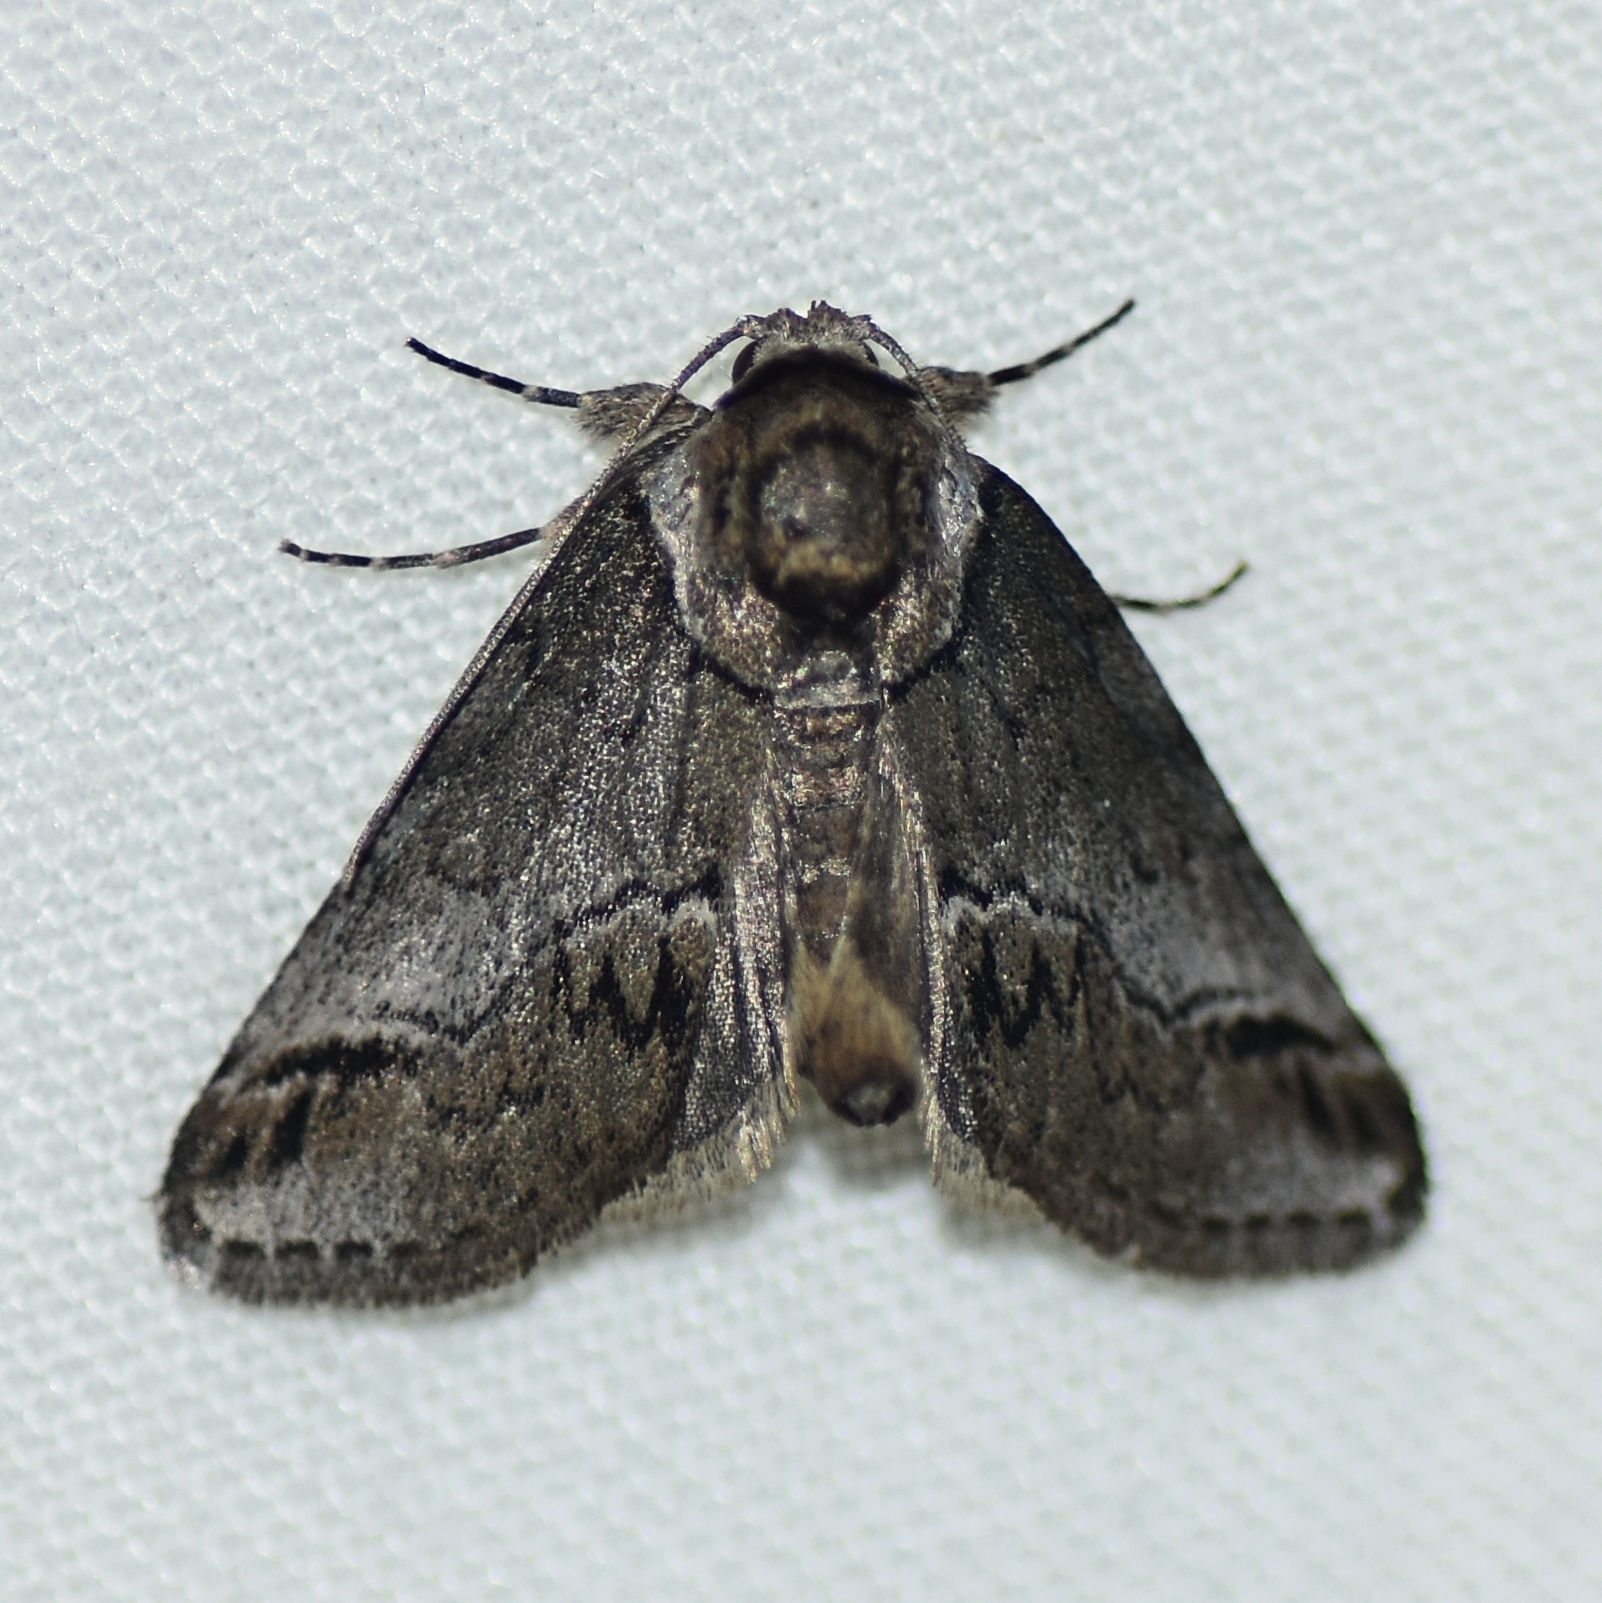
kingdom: Animalia
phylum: Arthropoda
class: Insecta
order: Lepidoptera
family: Nolidae
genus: Baileya
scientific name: Baileya australis
